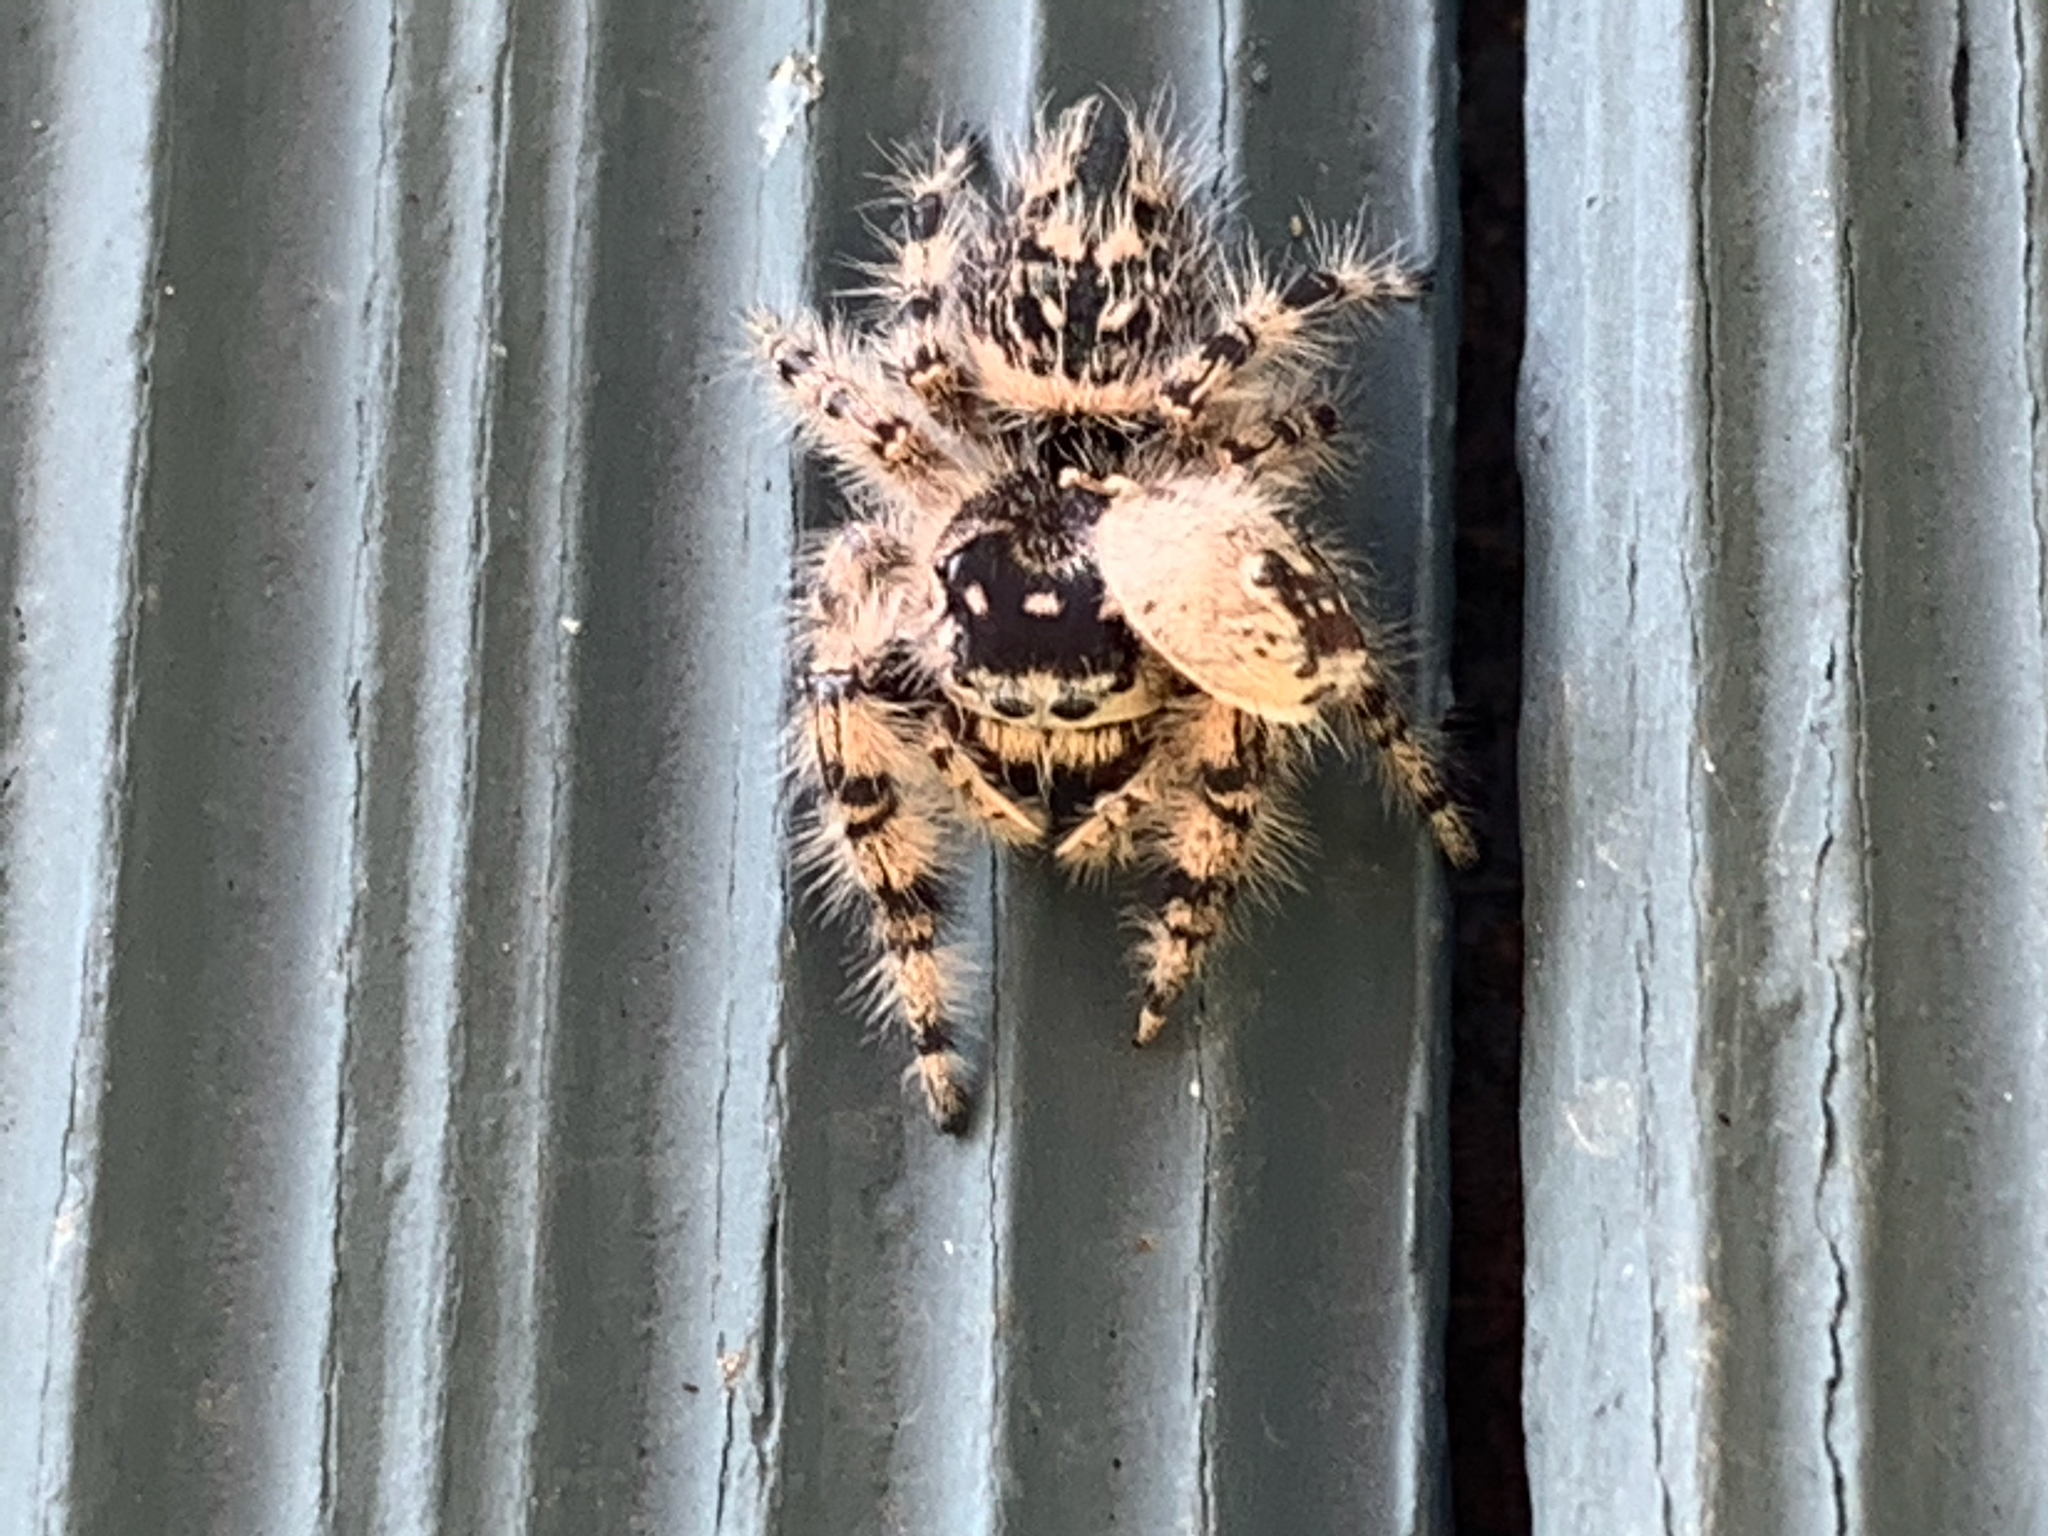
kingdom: Animalia
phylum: Arthropoda
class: Arachnida
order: Araneae
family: Salticidae
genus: Phidippus
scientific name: Phidippus otiosus
